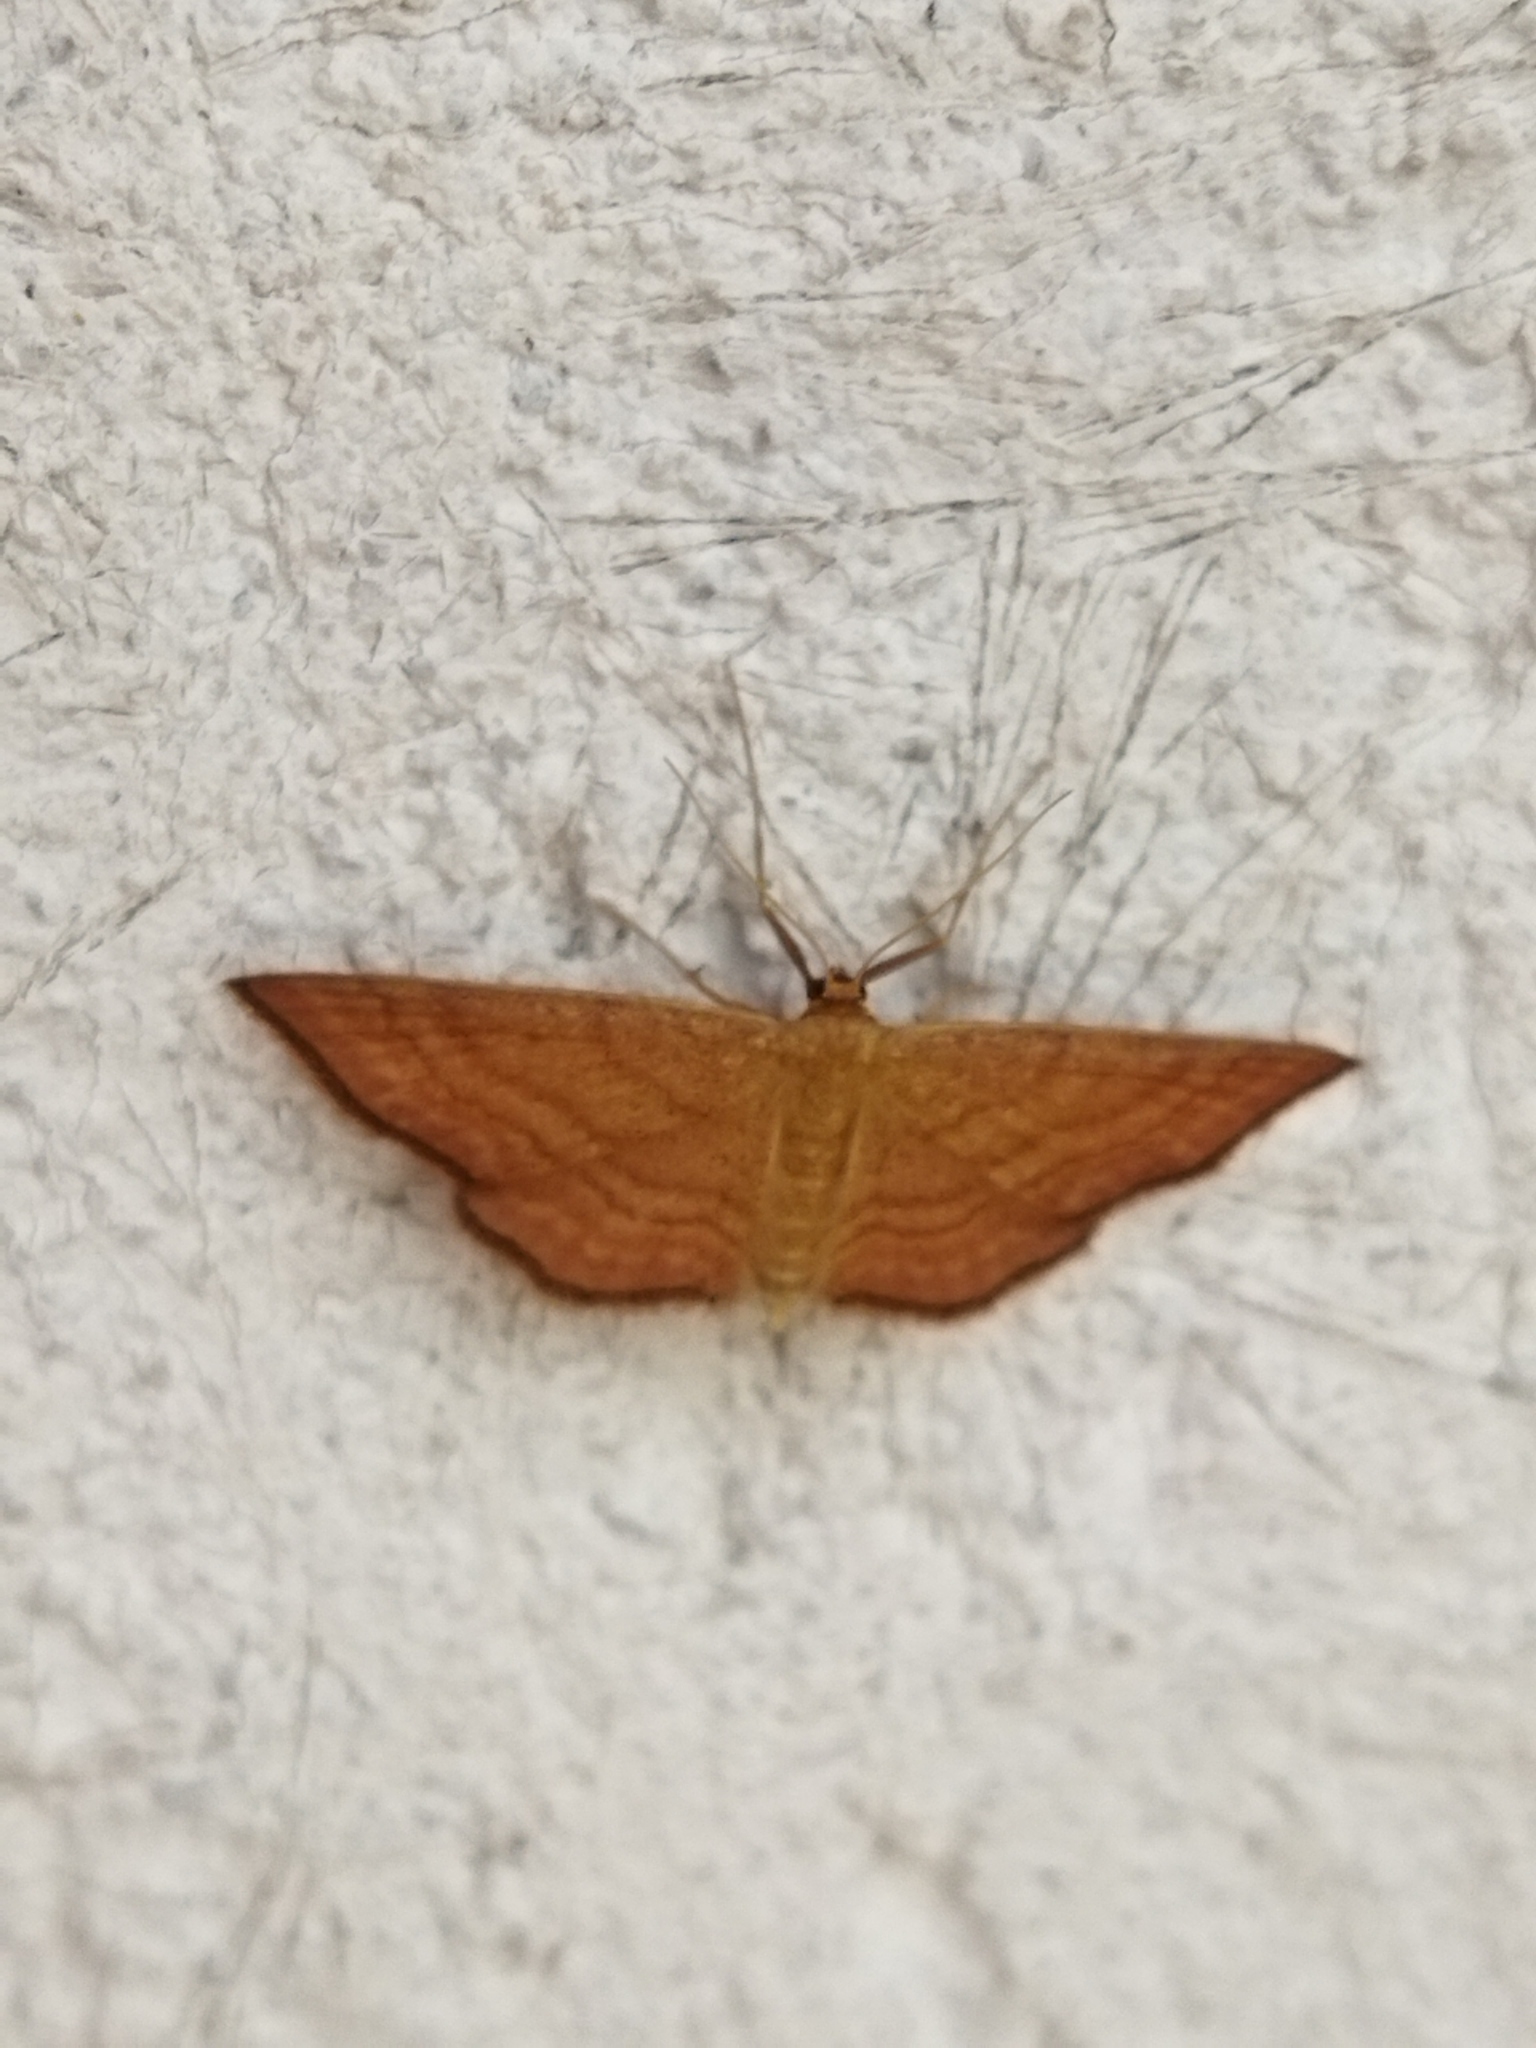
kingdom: Animalia
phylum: Arthropoda
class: Insecta
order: Lepidoptera
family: Geometridae
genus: Idaea
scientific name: Idaea ochrata
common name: Bright wave
